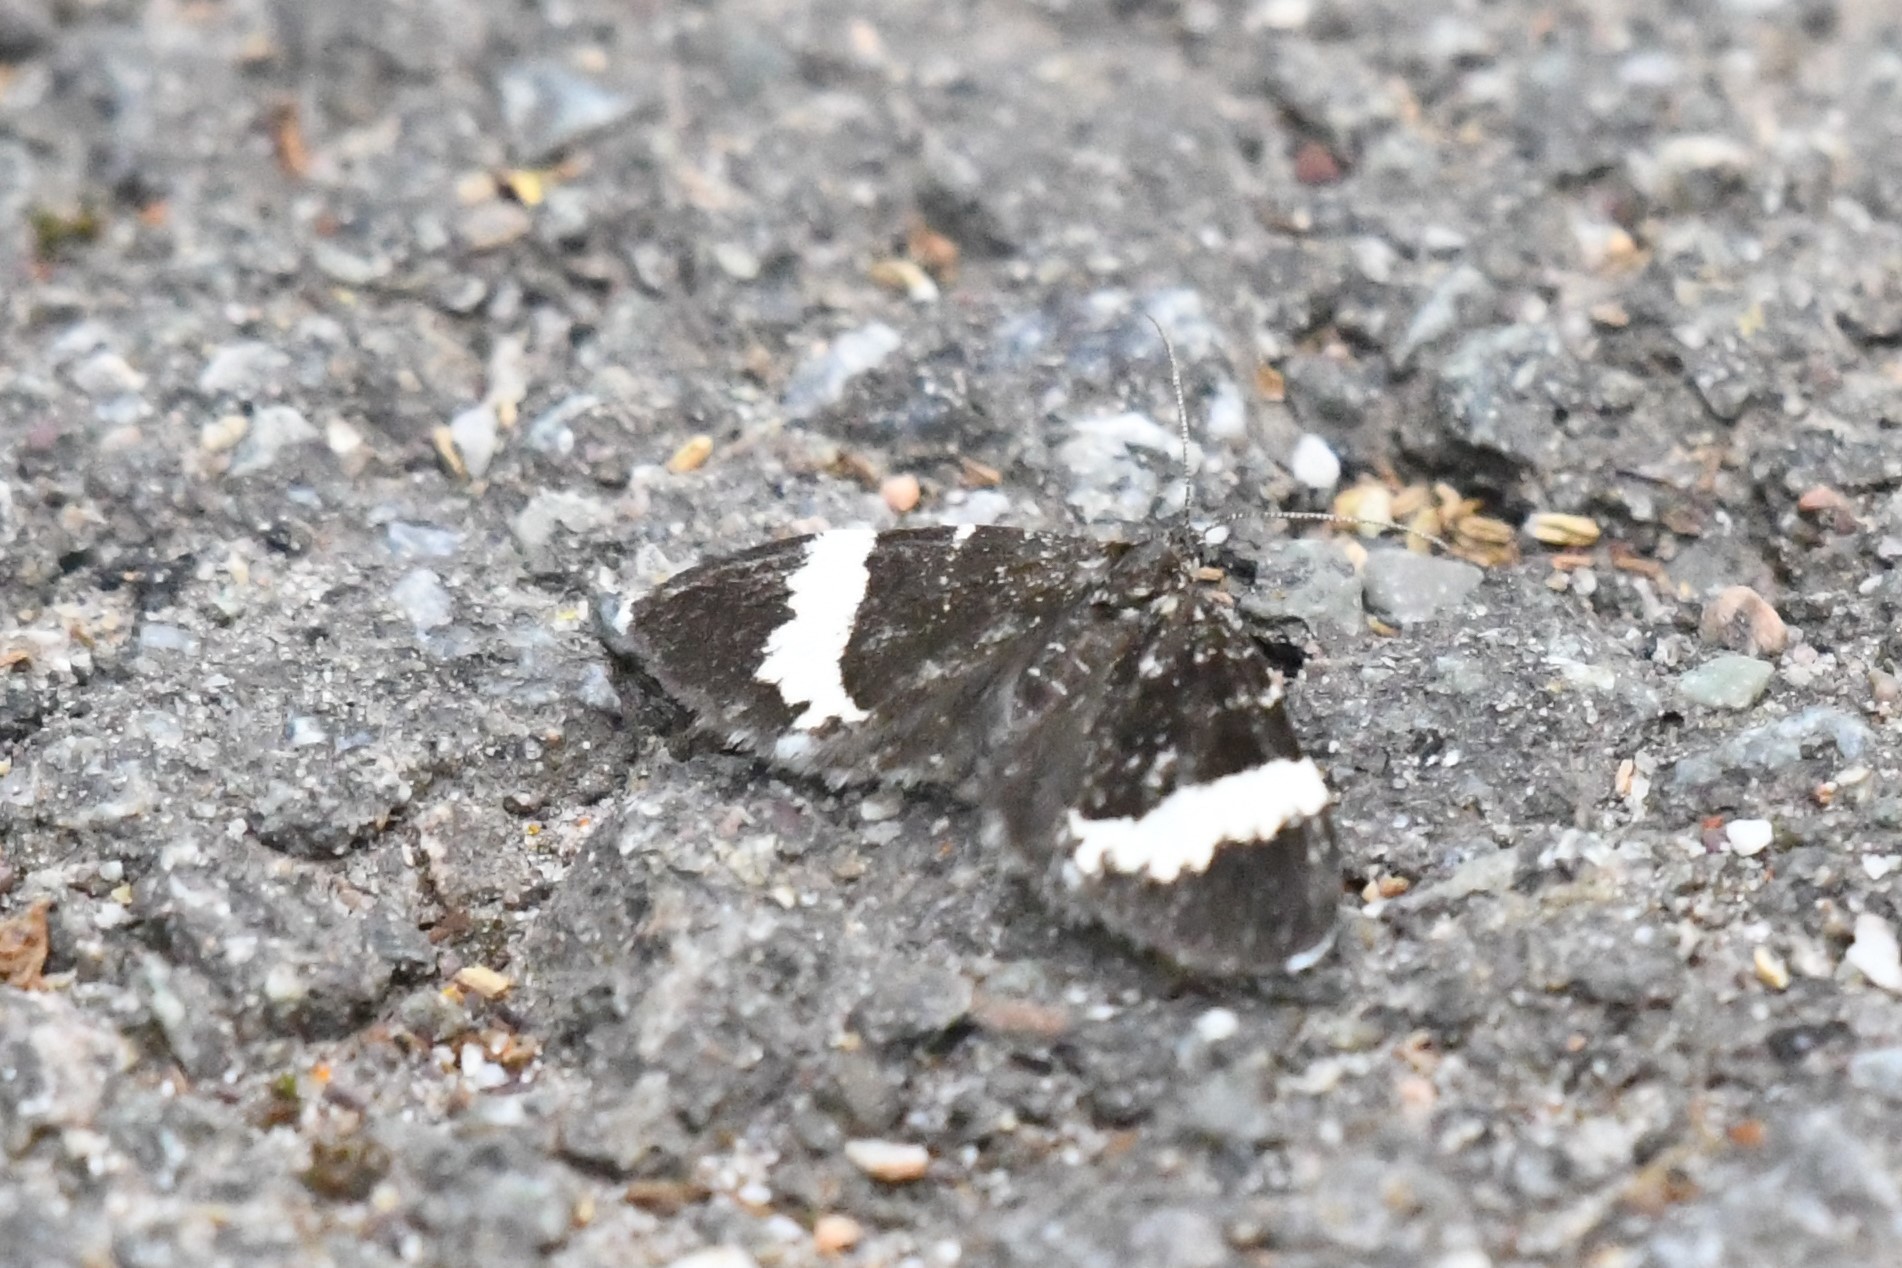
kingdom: Animalia
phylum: Arthropoda
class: Insecta
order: Lepidoptera
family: Geometridae
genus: Trichodezia
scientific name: Trichodezia albovittata
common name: White striped black
